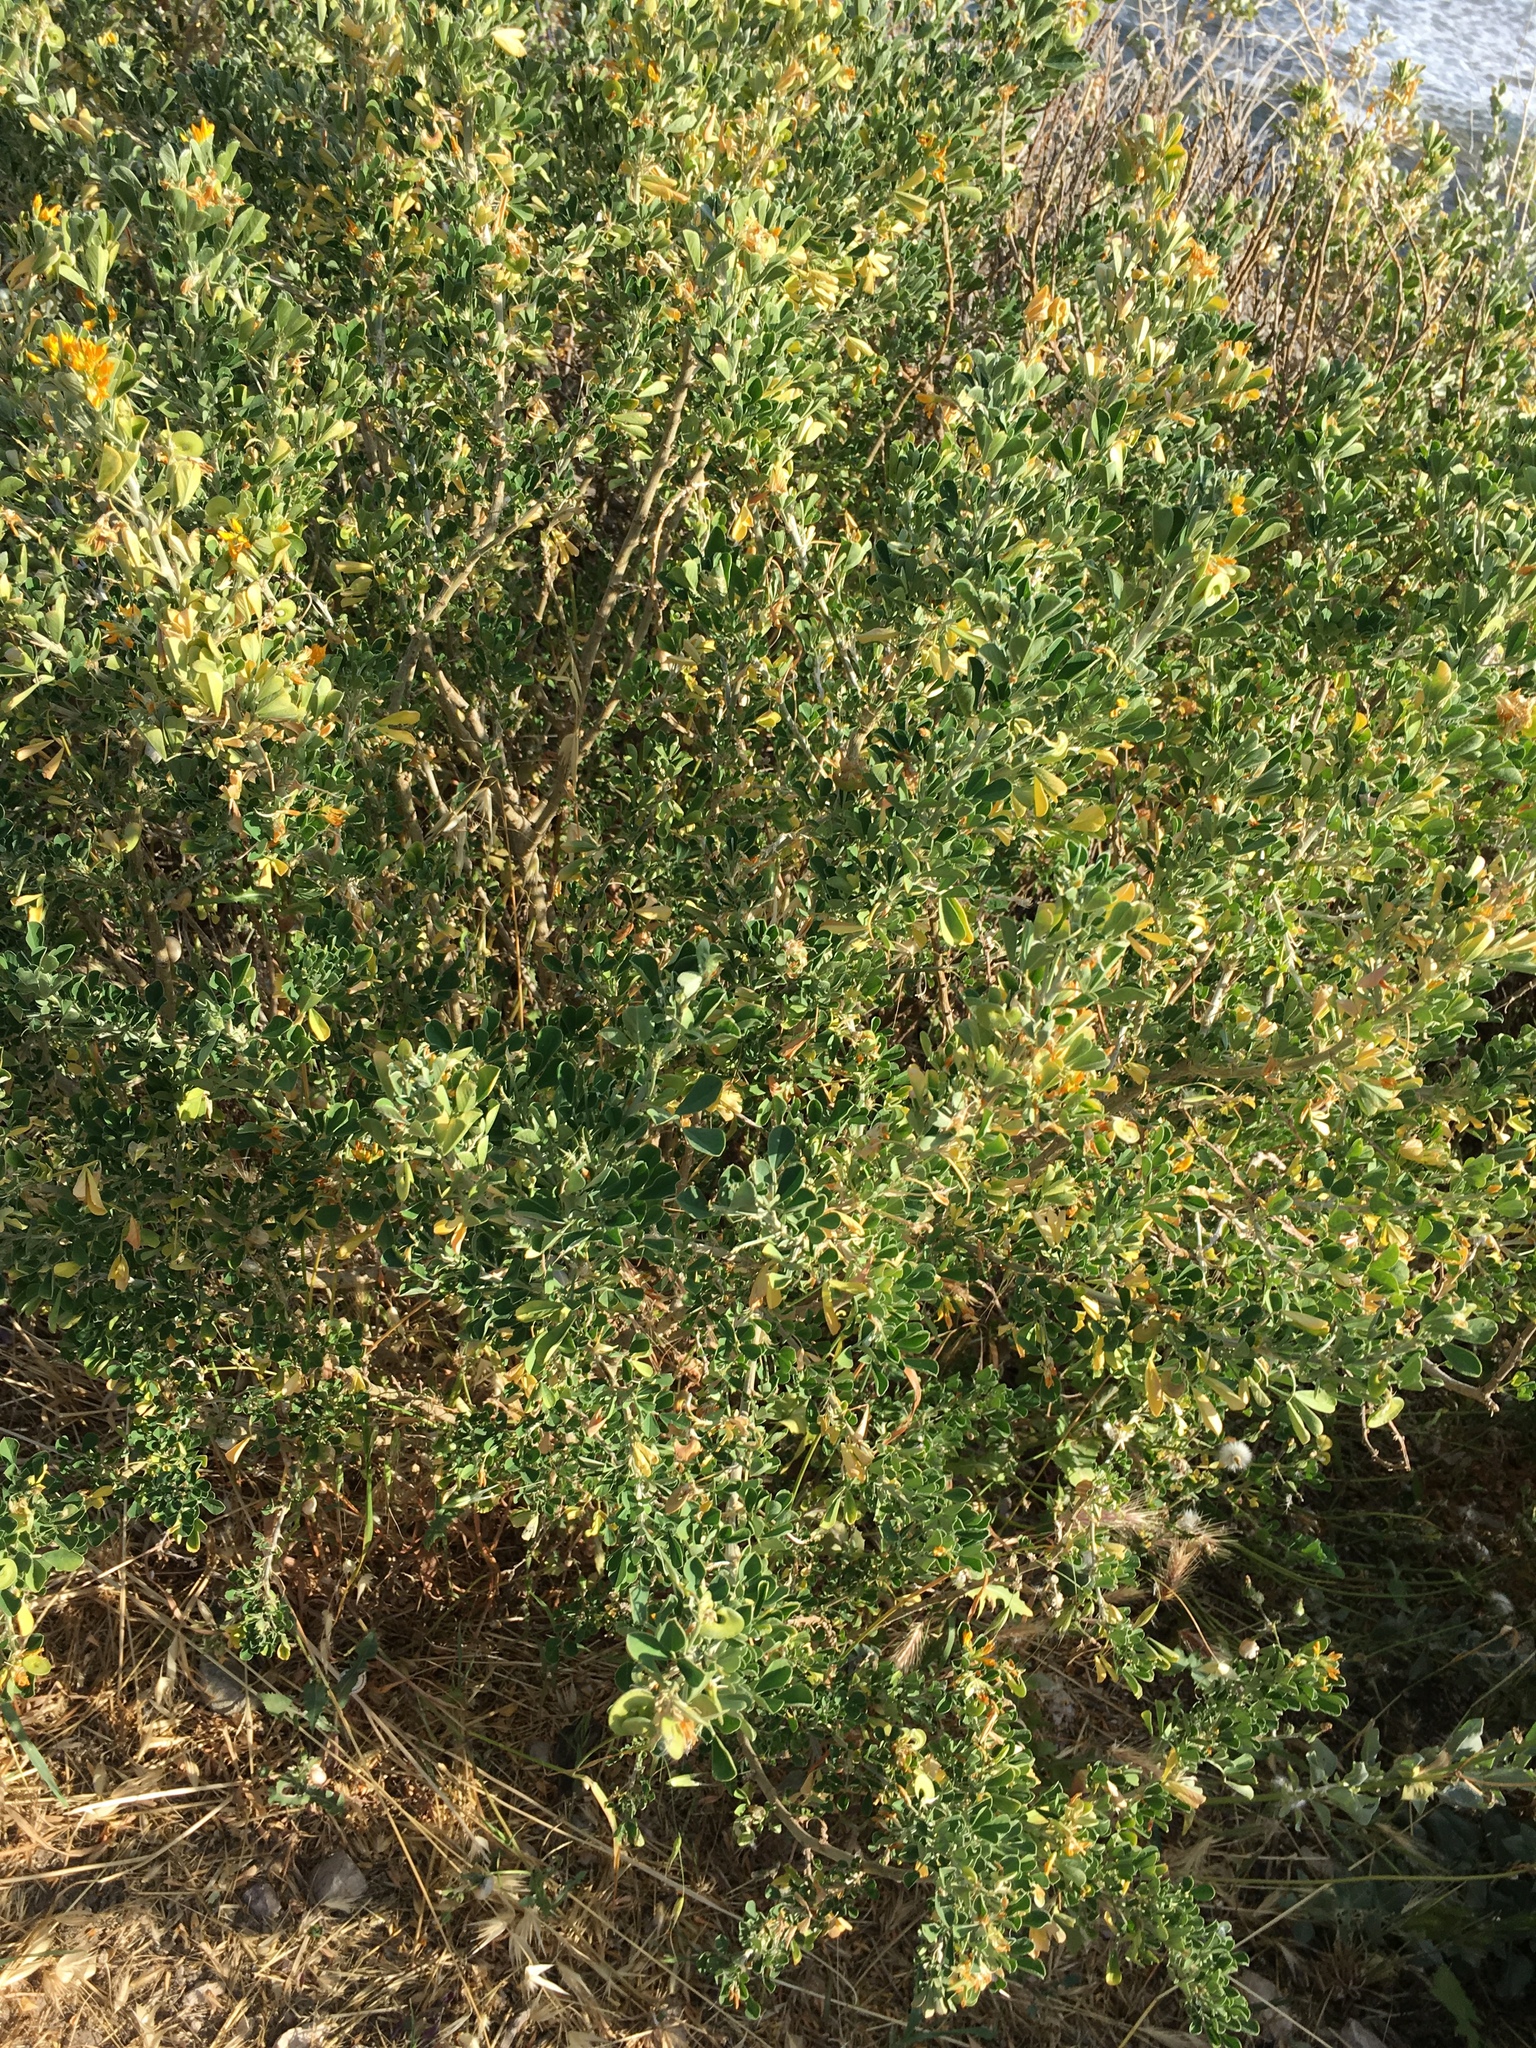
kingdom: Plantae
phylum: Tracheophyta
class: Magnoliopsida
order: Fabales
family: Fabaceae
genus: Medicago
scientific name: Medicago arborea
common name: Moon trefoil
